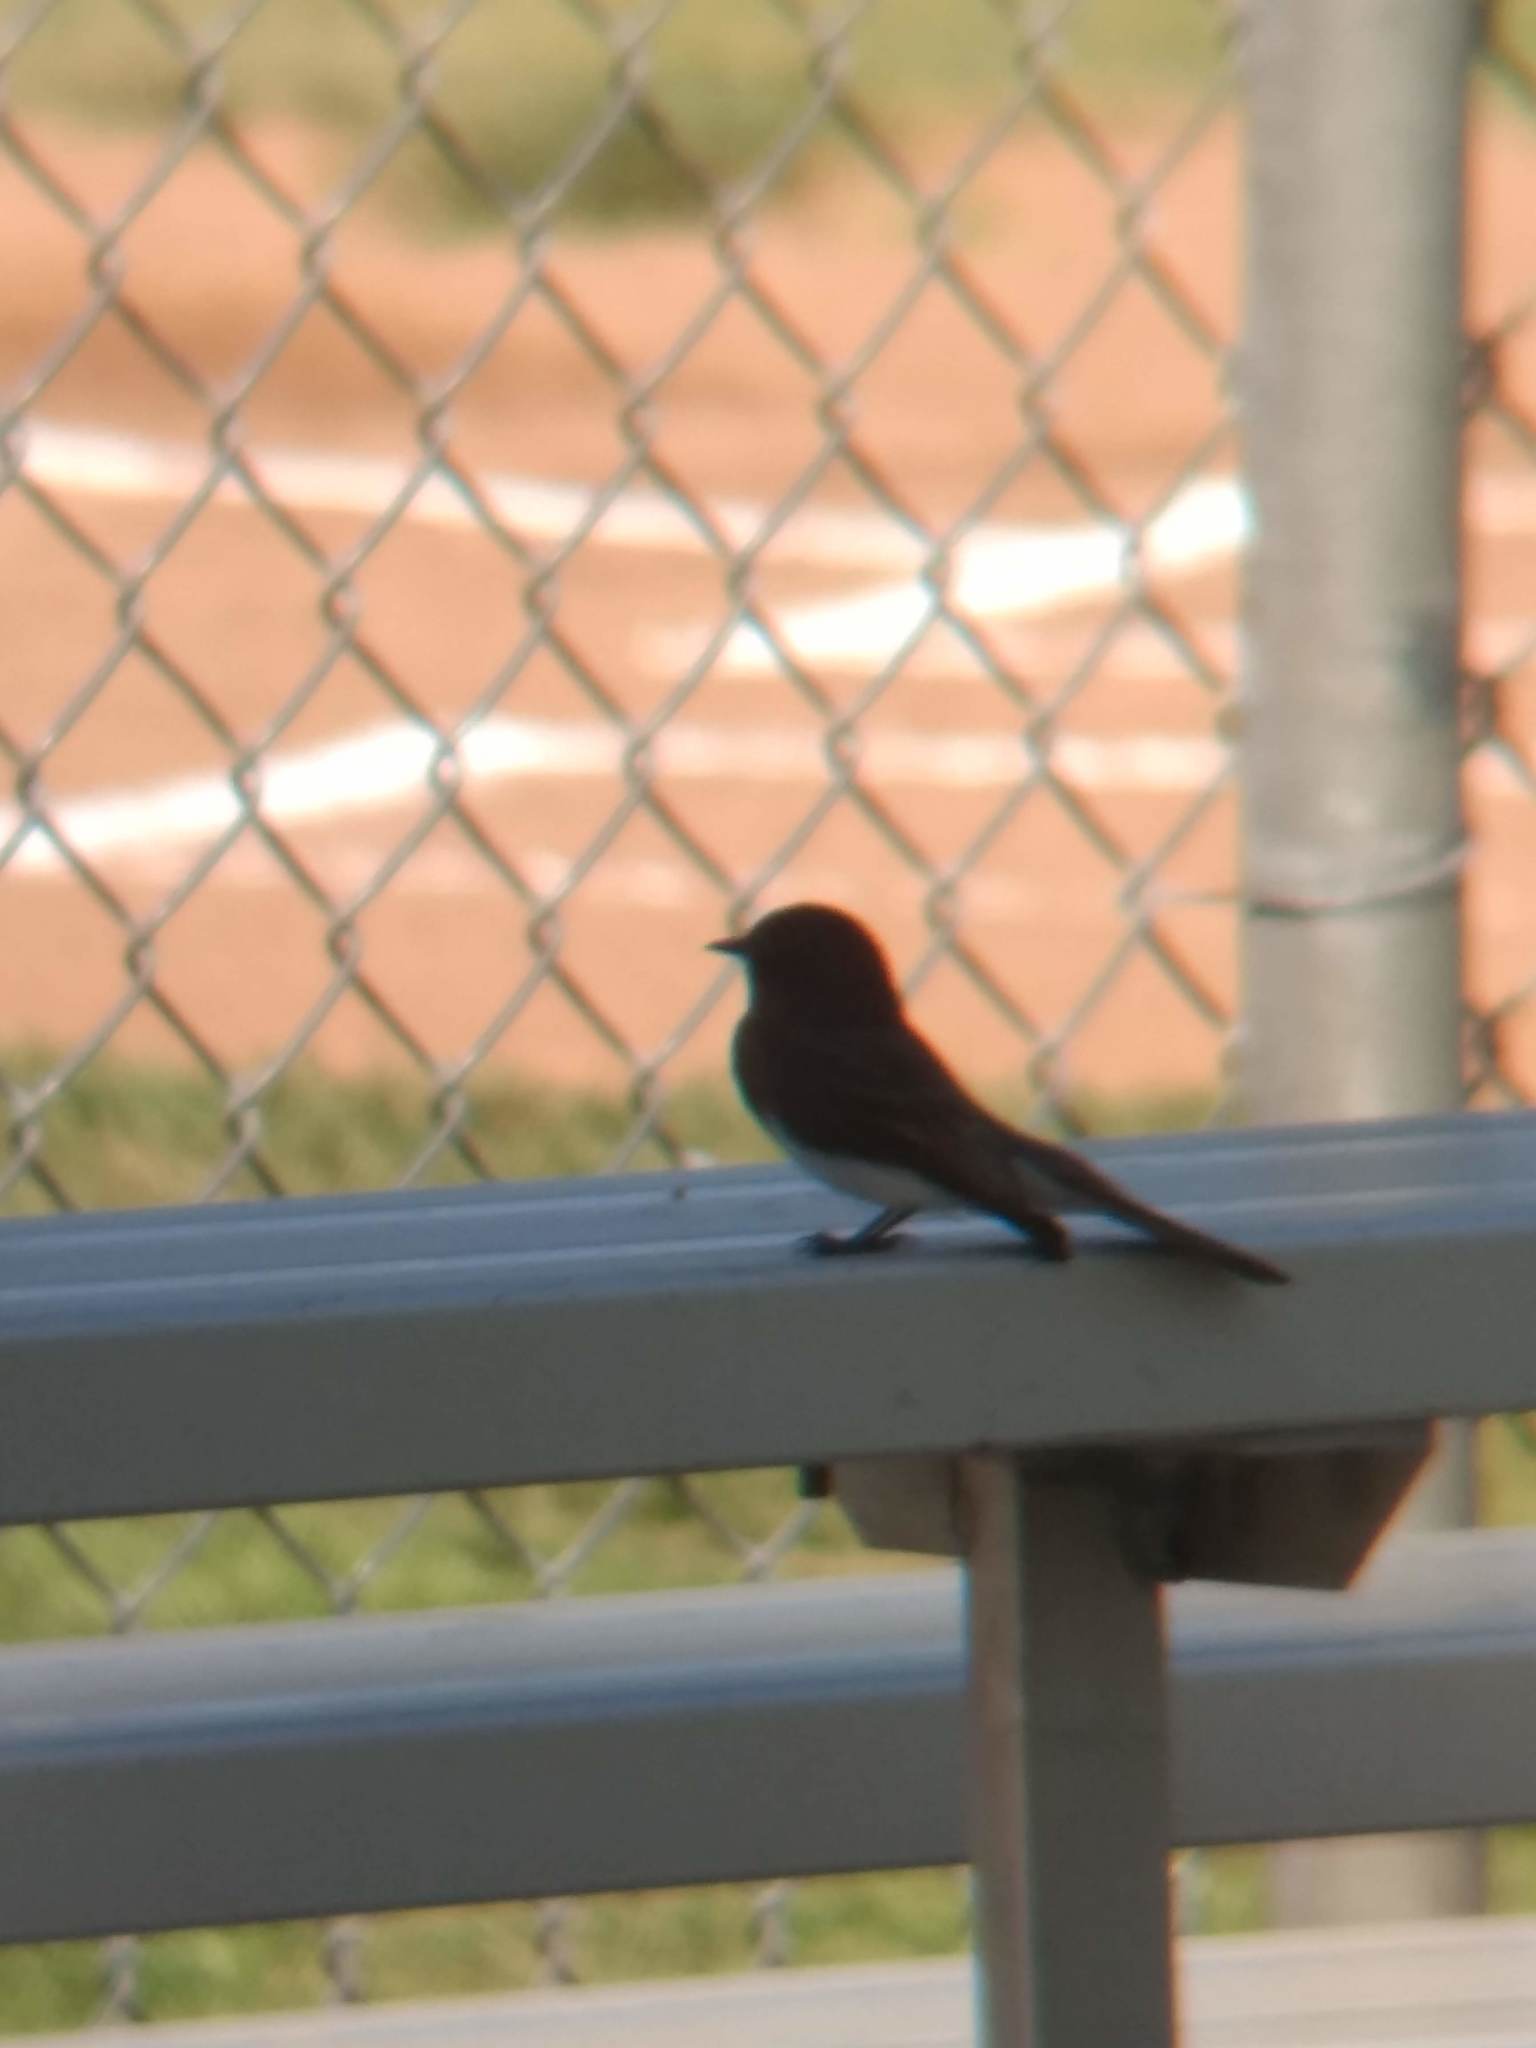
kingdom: Animalia
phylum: Chordata
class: Aves
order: Passeriformes
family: Tyrannidae
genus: Sayornis
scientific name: Sayornis nigricans
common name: Black phoebe
